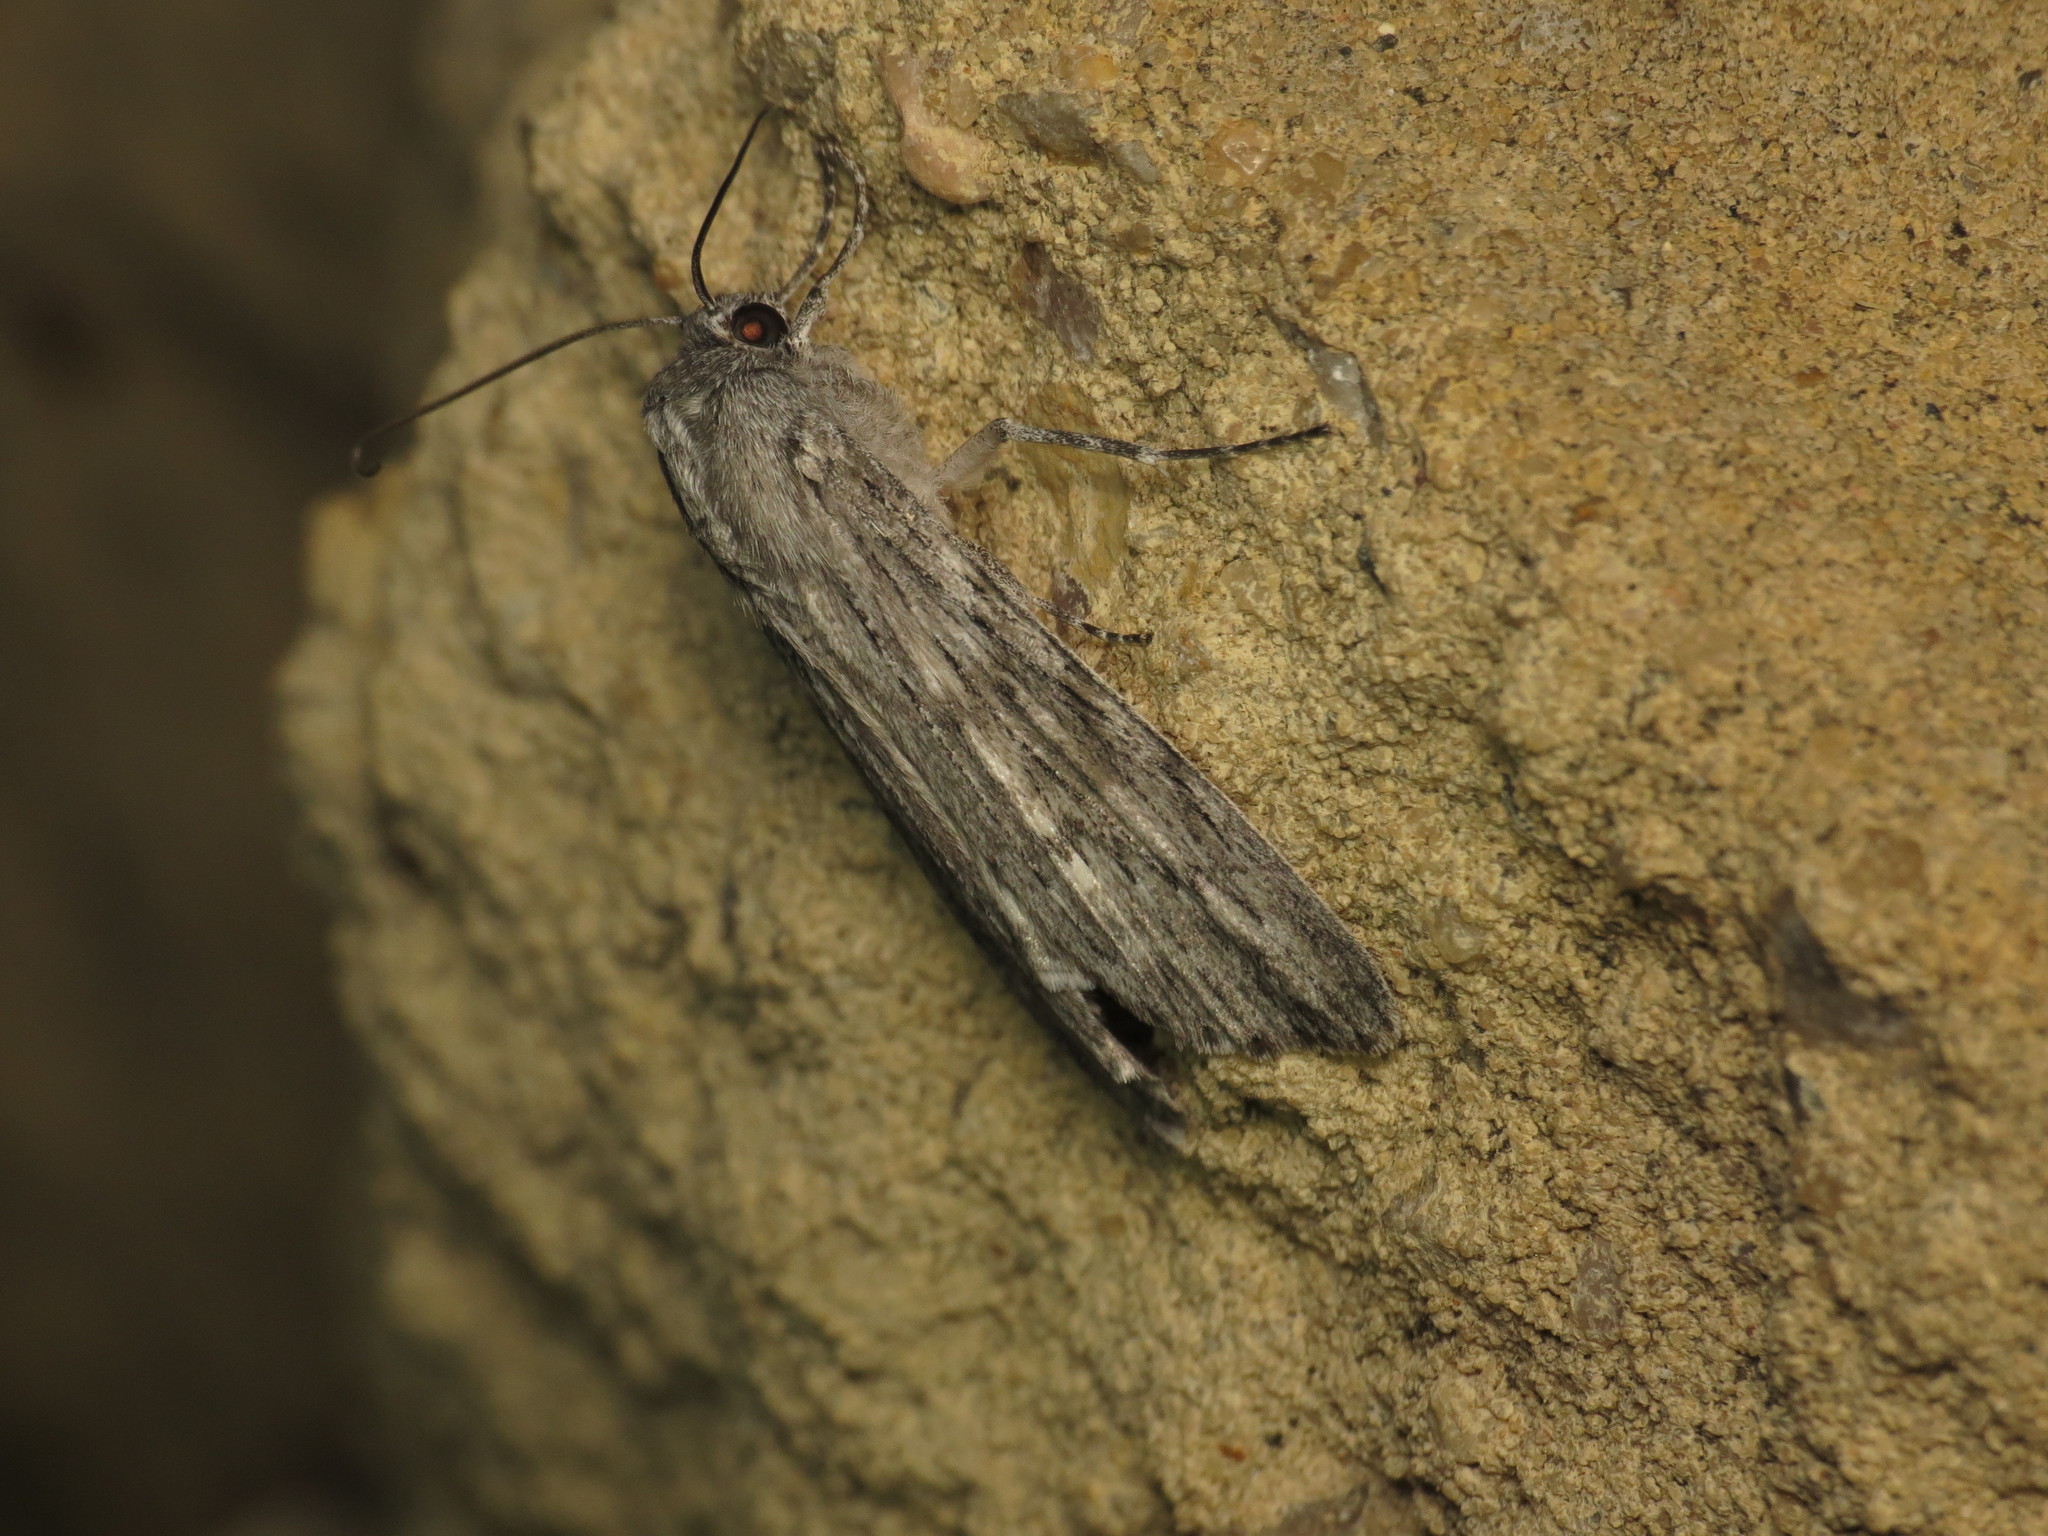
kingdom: Animalia
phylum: Arthropoda
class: Insecta
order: Lepidoptera
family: Geometridae
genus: Capusa
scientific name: Capusa senilis
